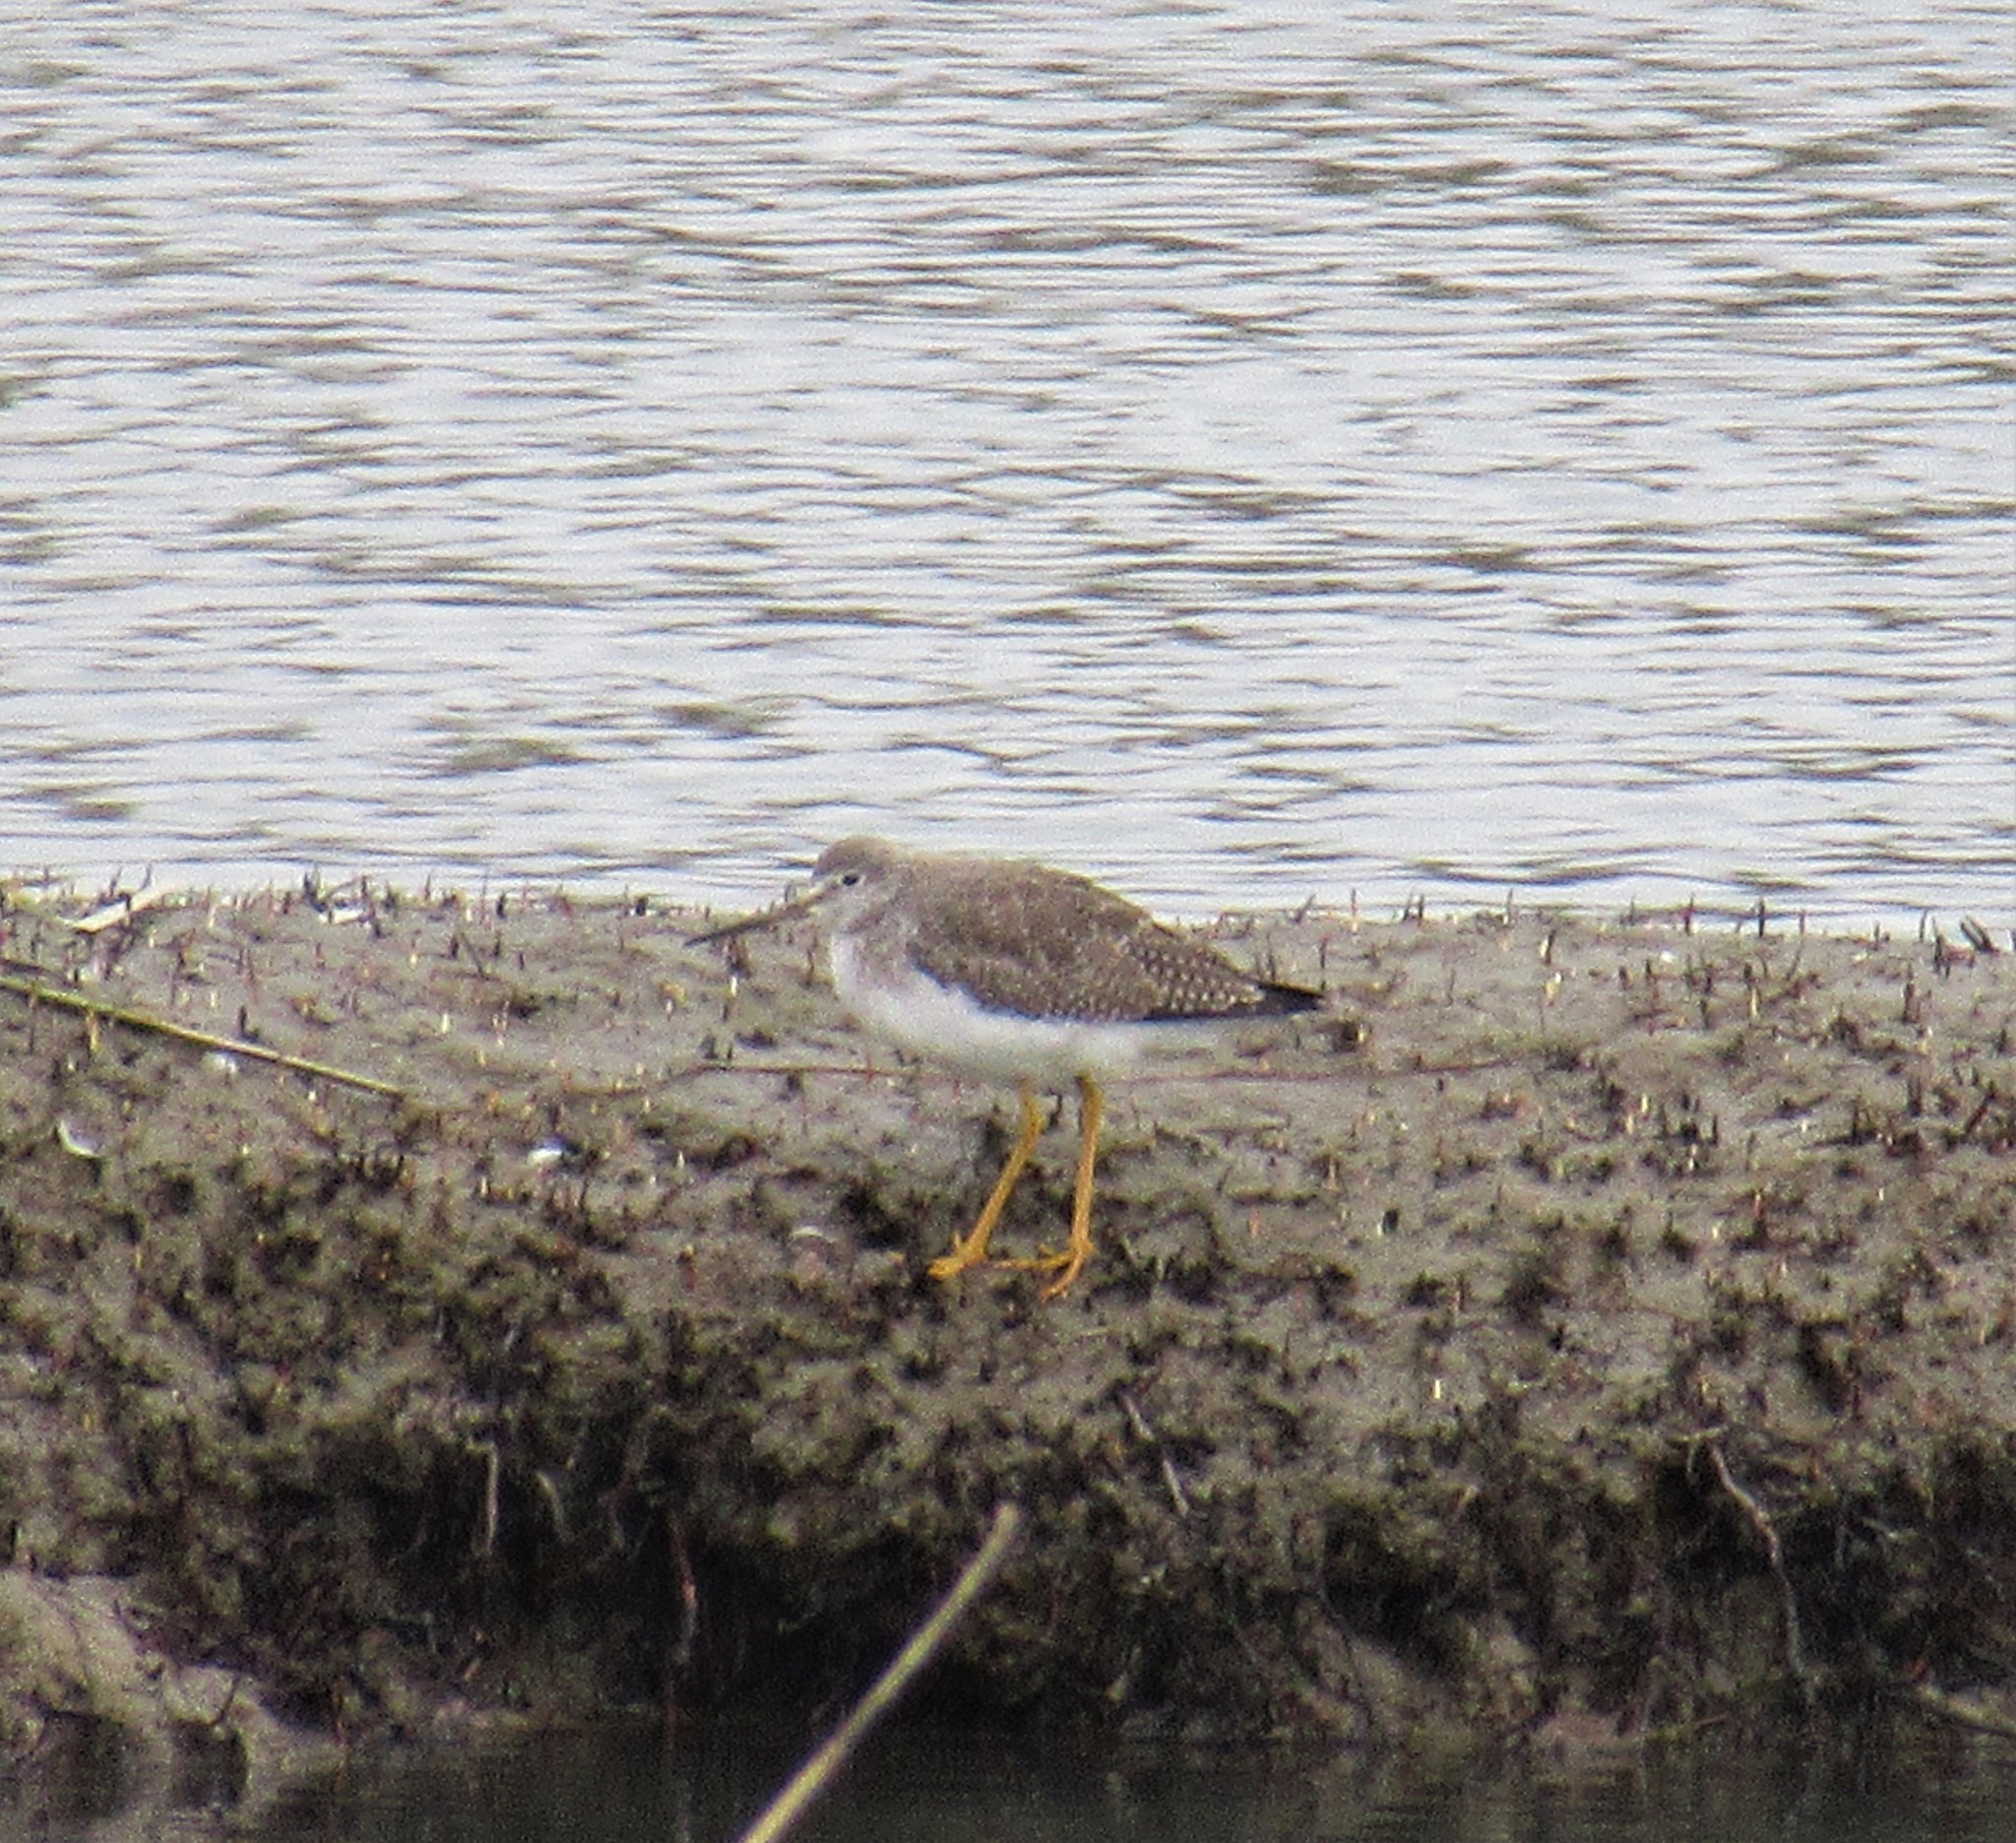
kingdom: Animalia
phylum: Chordata
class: Aves
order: Charadriiformes
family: Scolopacidae
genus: Tringa
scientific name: Tringa melanoleuca
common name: Greater yellowlegs
